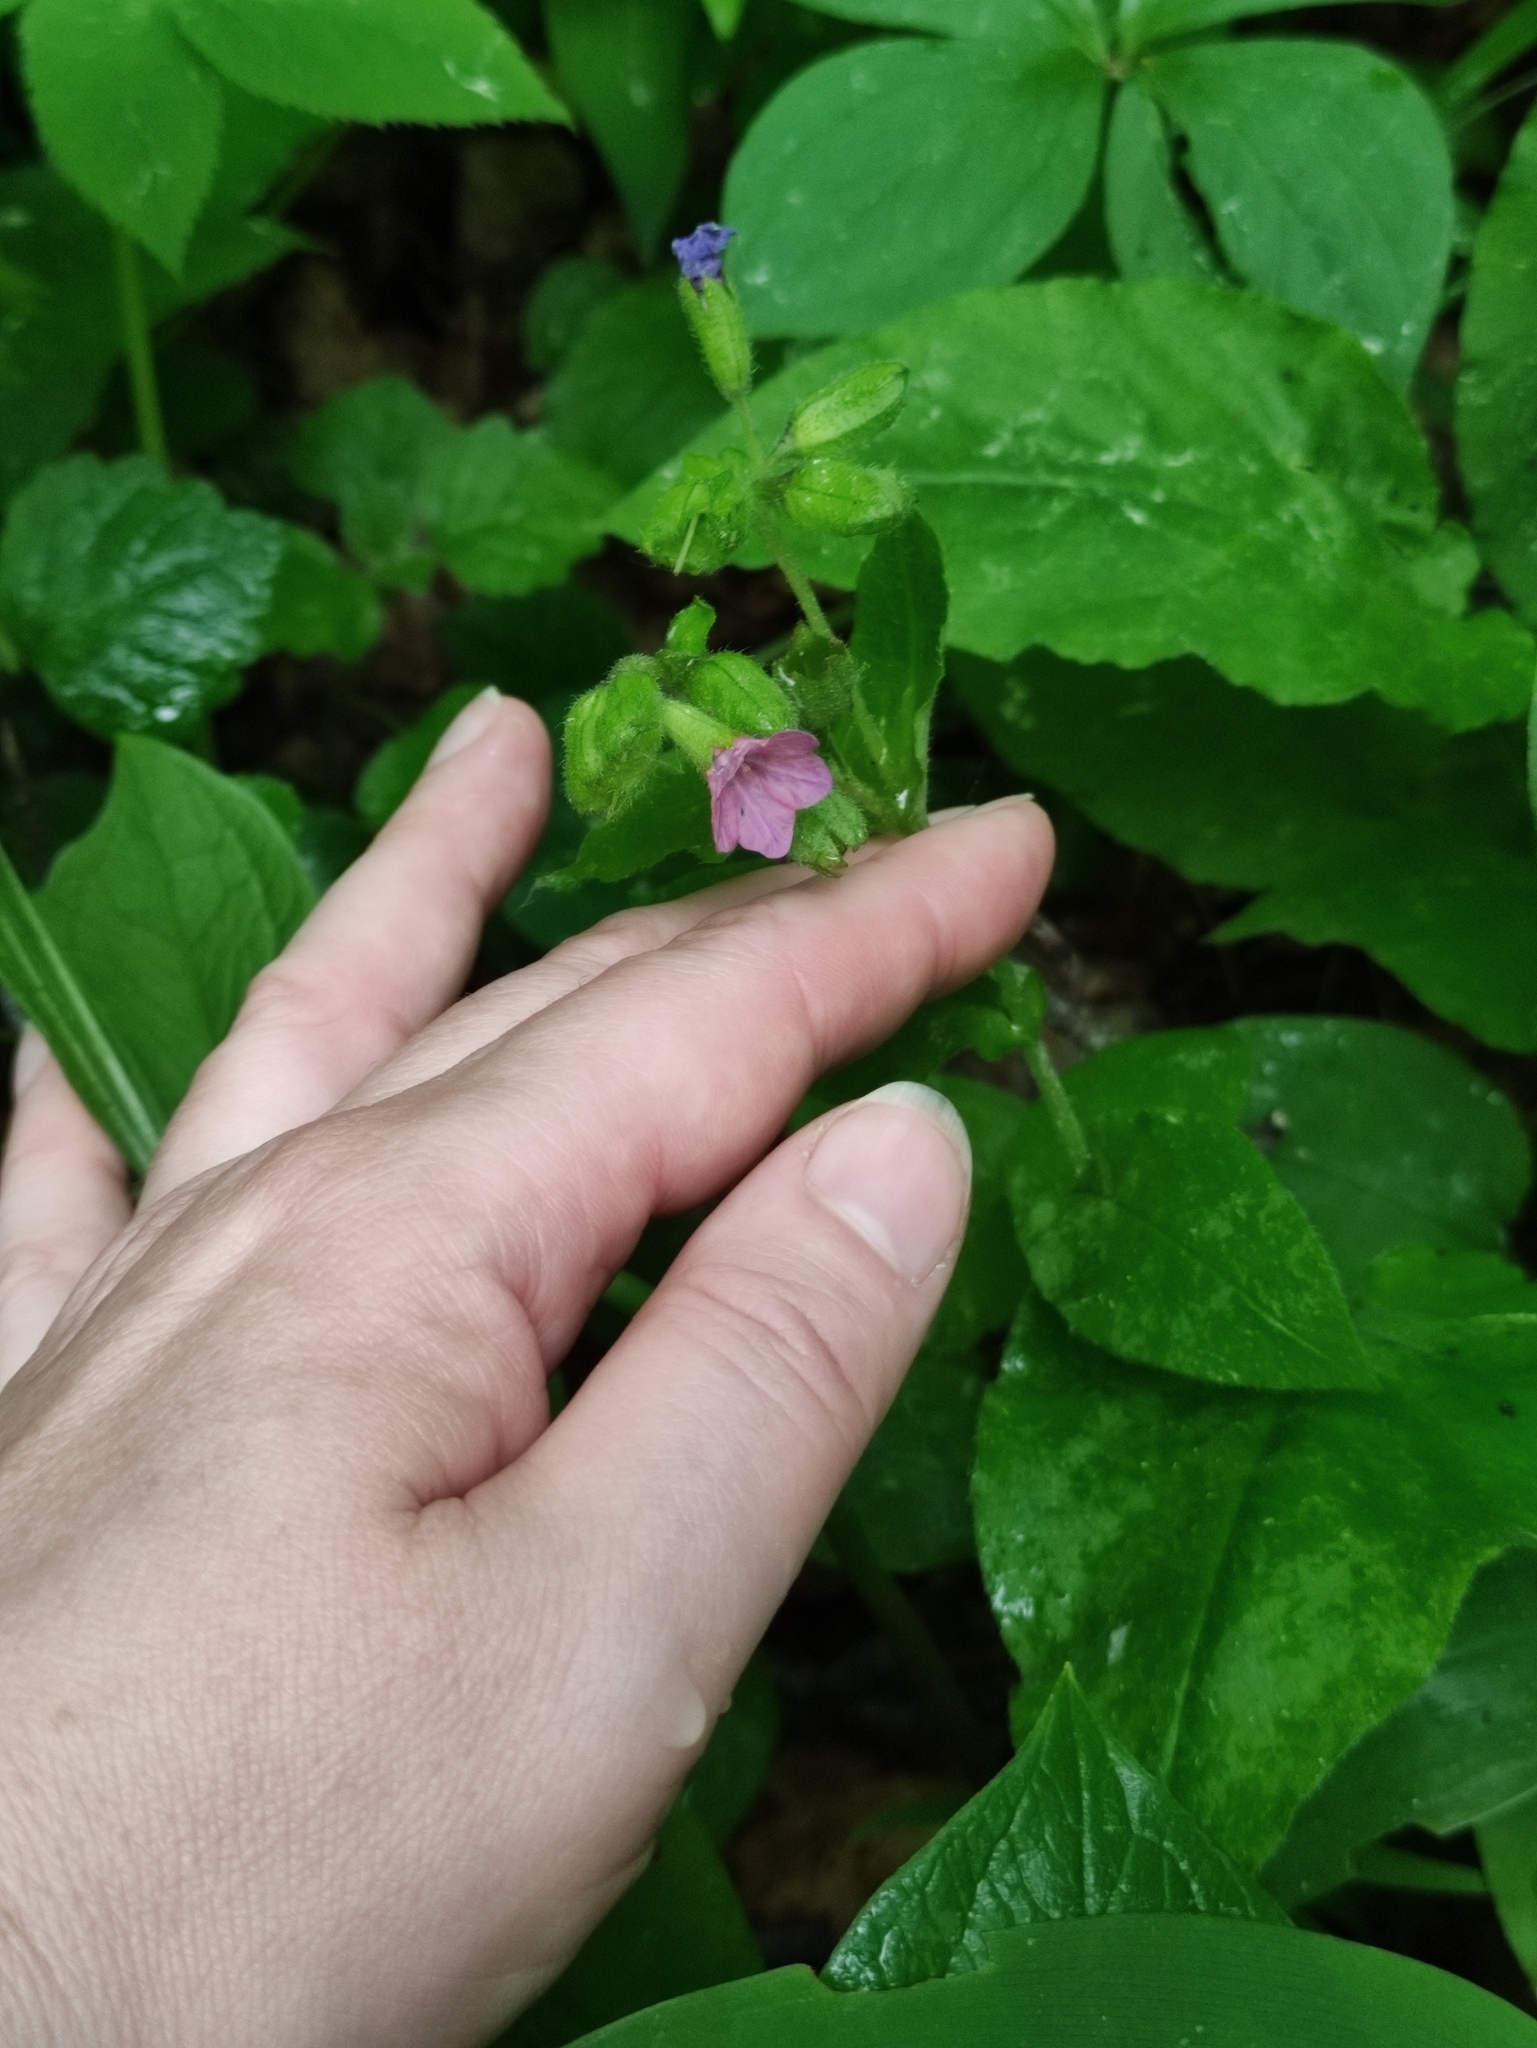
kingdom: Plantae
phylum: Tracheophyta
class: Magnoliopsida
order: Boraginales
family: Boraginaceae
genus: Pulmonaria
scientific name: Pulmonaria obscura
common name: Suffolk lungwort
